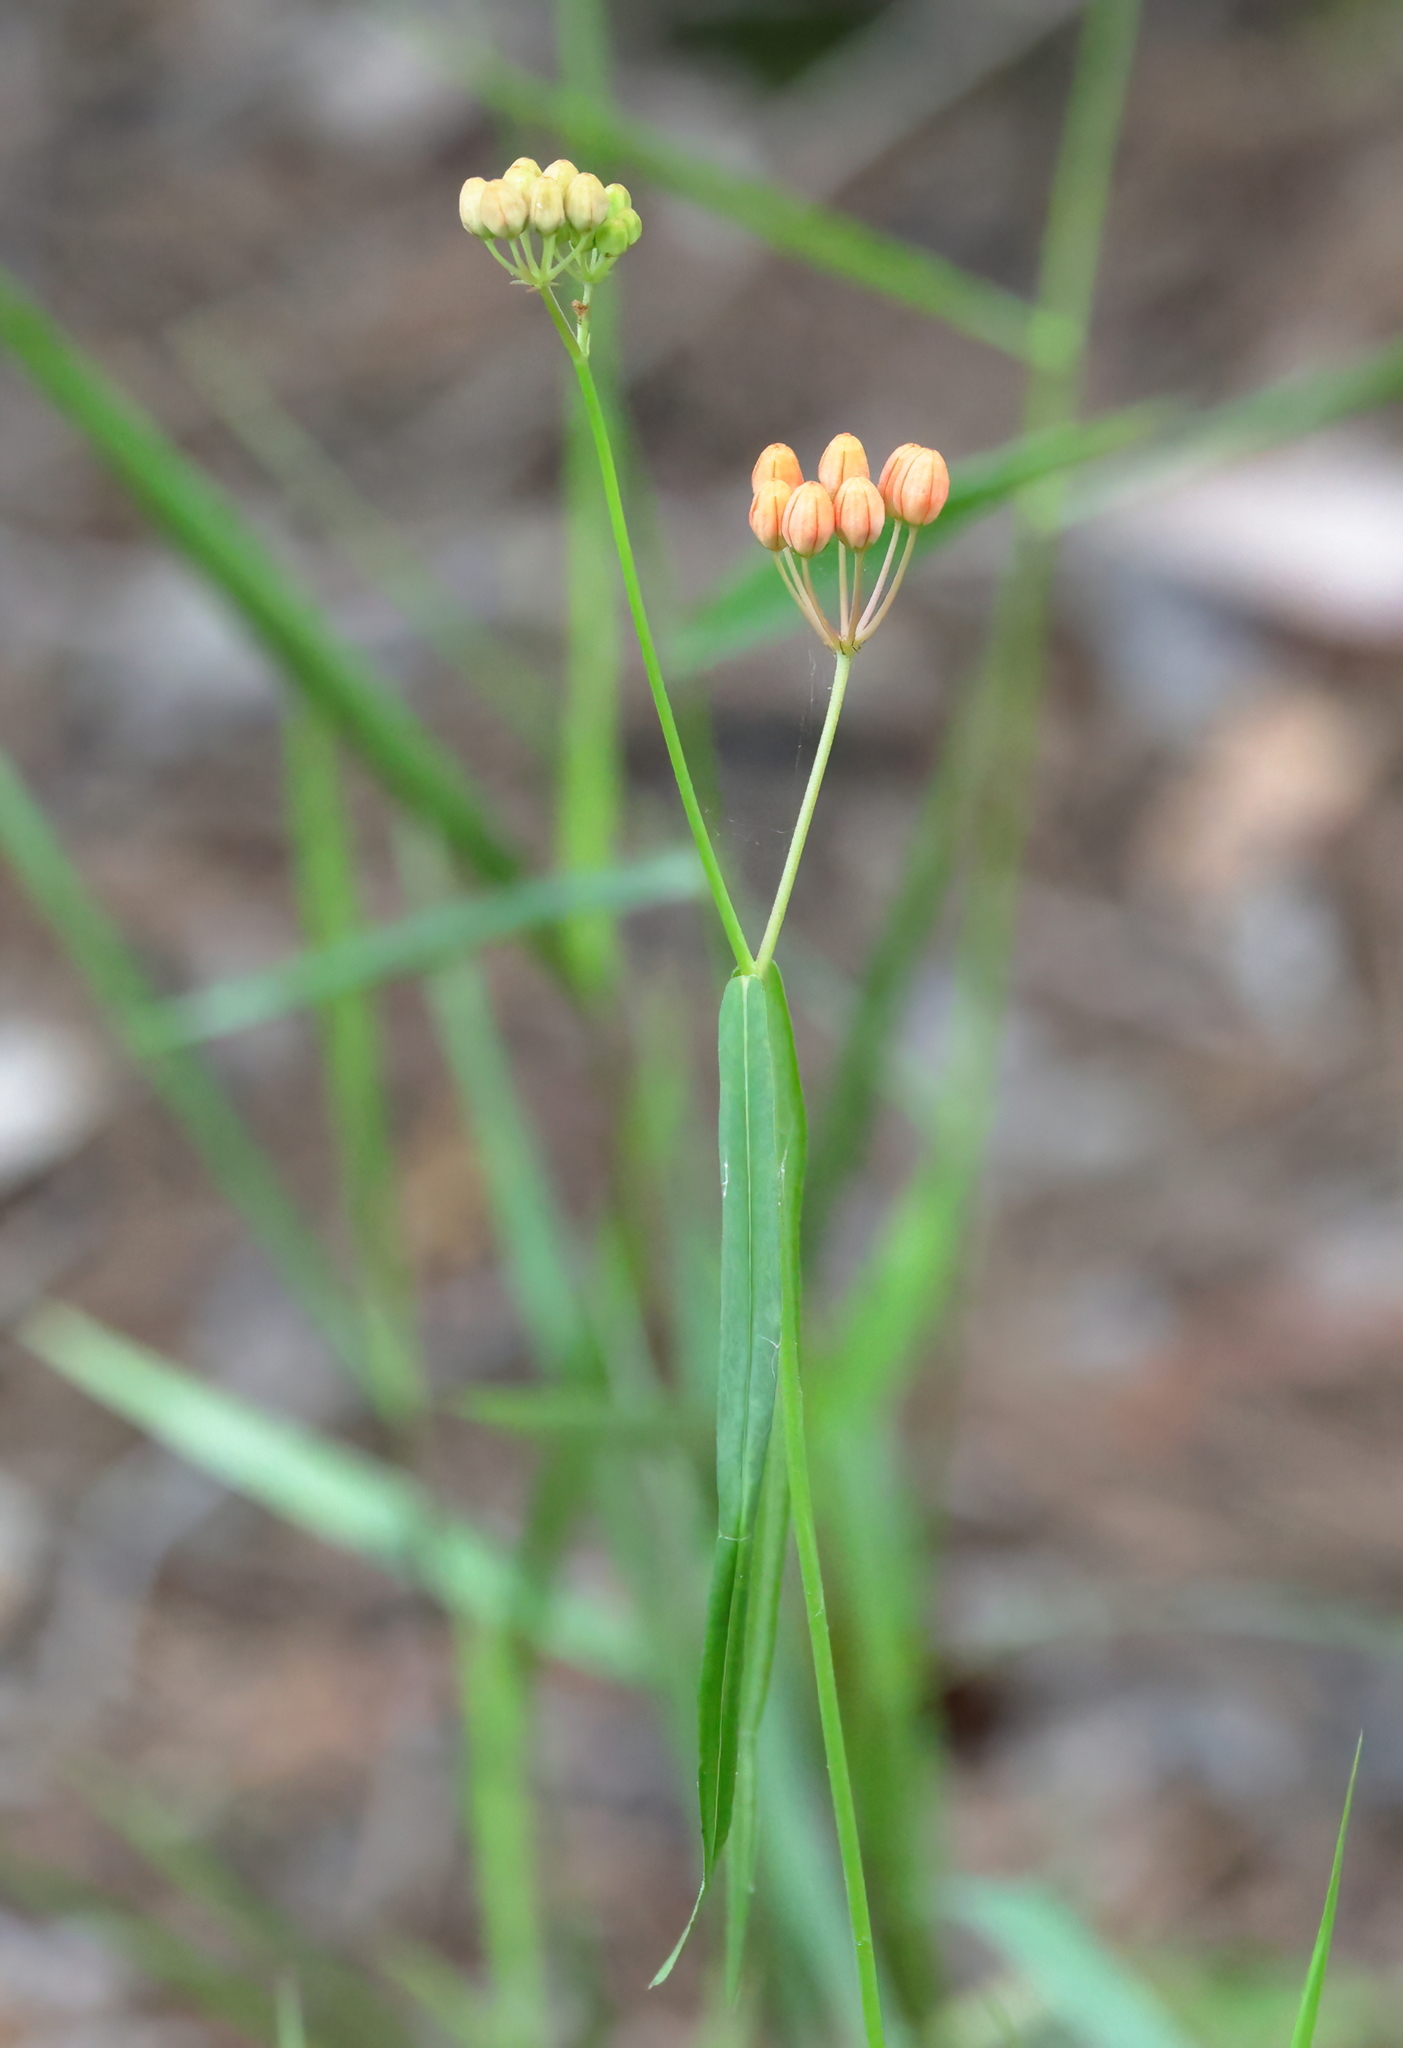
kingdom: Plantae
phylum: Tracheophyta
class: Magnoliopsida
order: Gentianales
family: Apocynaceae
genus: Asclepias
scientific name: Asclepias lanceolata
